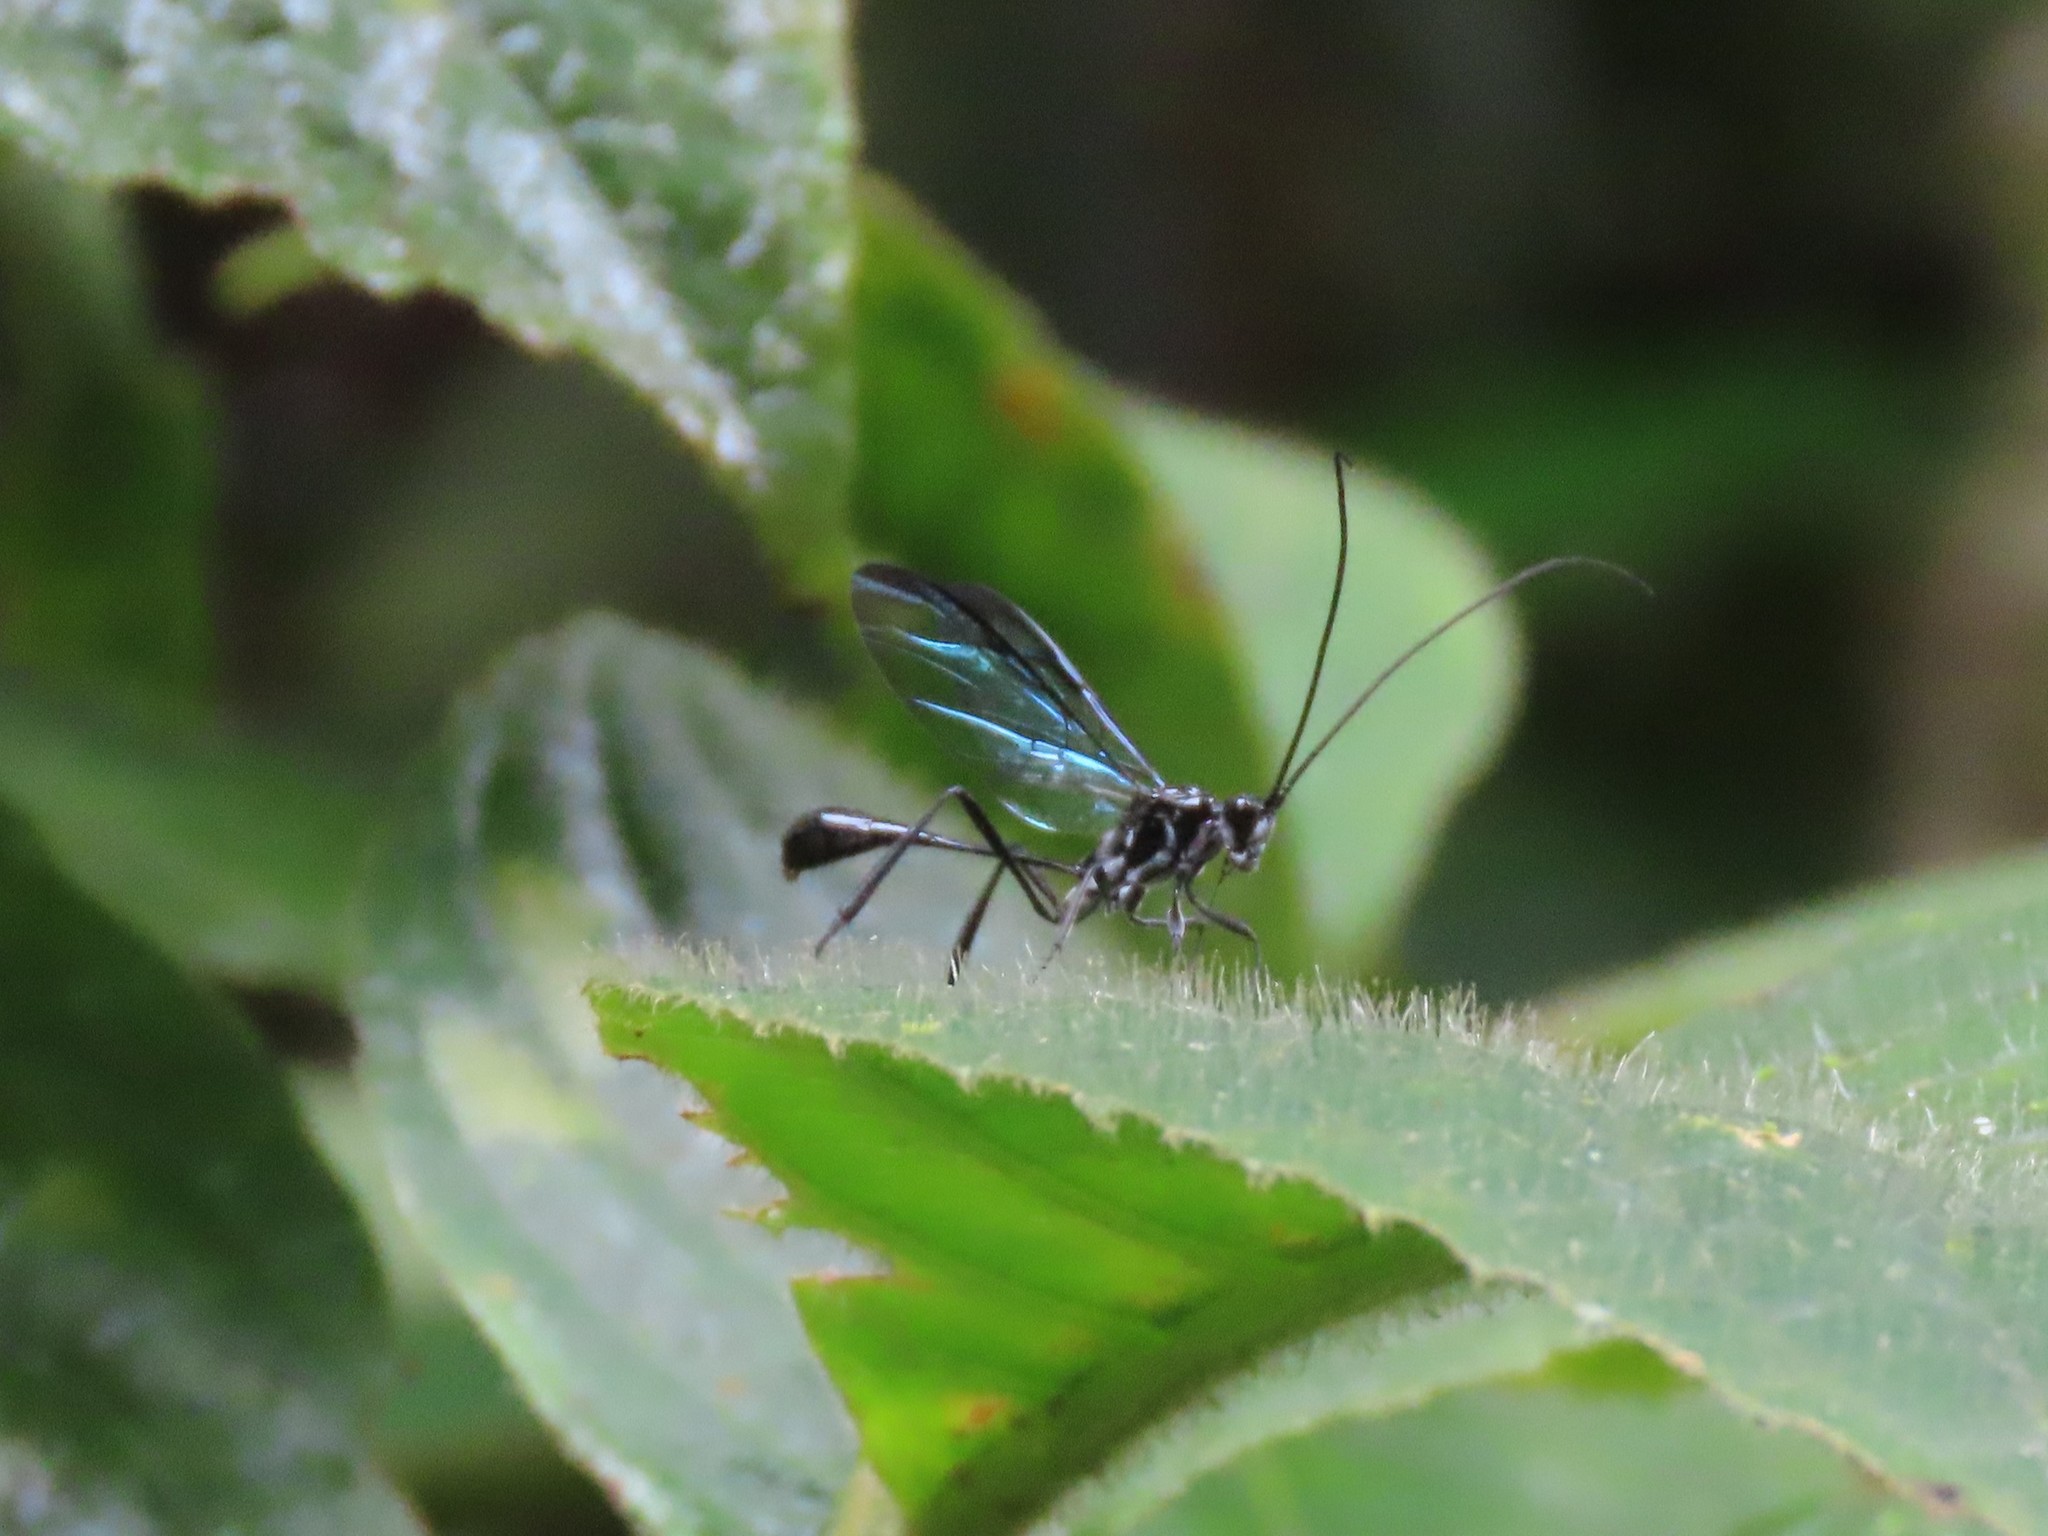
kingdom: Animalia
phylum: Arthropoda
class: Insecta
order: Hymenoptera
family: Pelecinidae
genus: Pelecinus
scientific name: Pelecinus polyturator
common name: American pelecinid wasp
